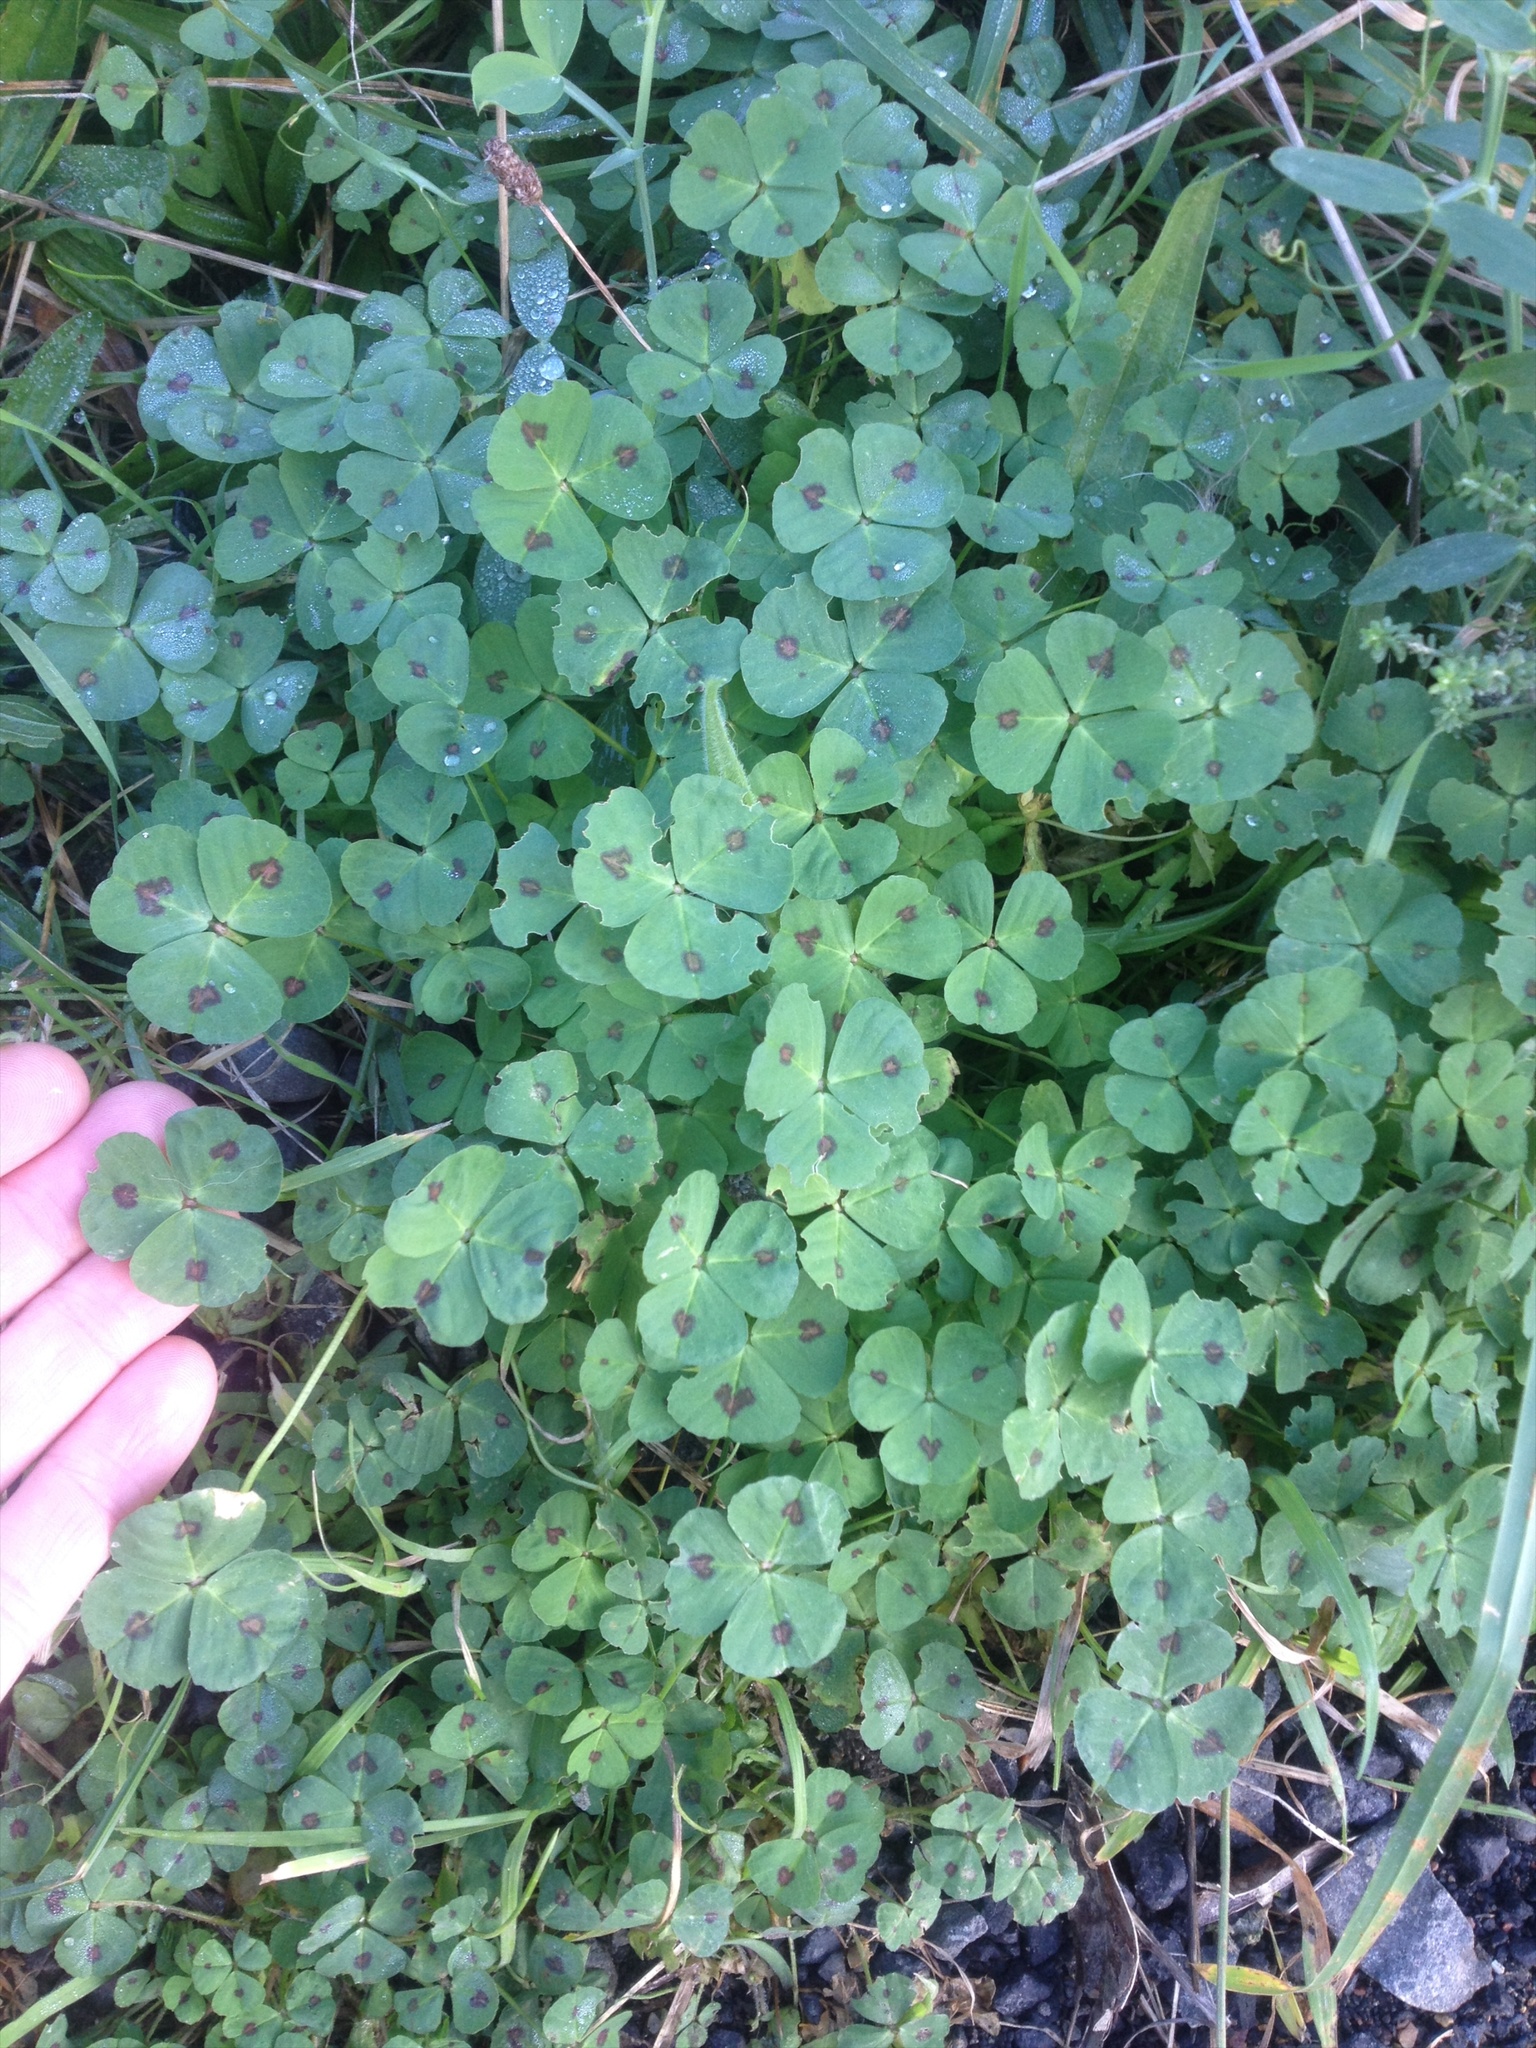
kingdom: Plantae
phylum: Tracheophyta
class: Magnoliopsida
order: Fabales
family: Fabaceae
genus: Medicago
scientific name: Medicago arabica
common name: Spotted medick
